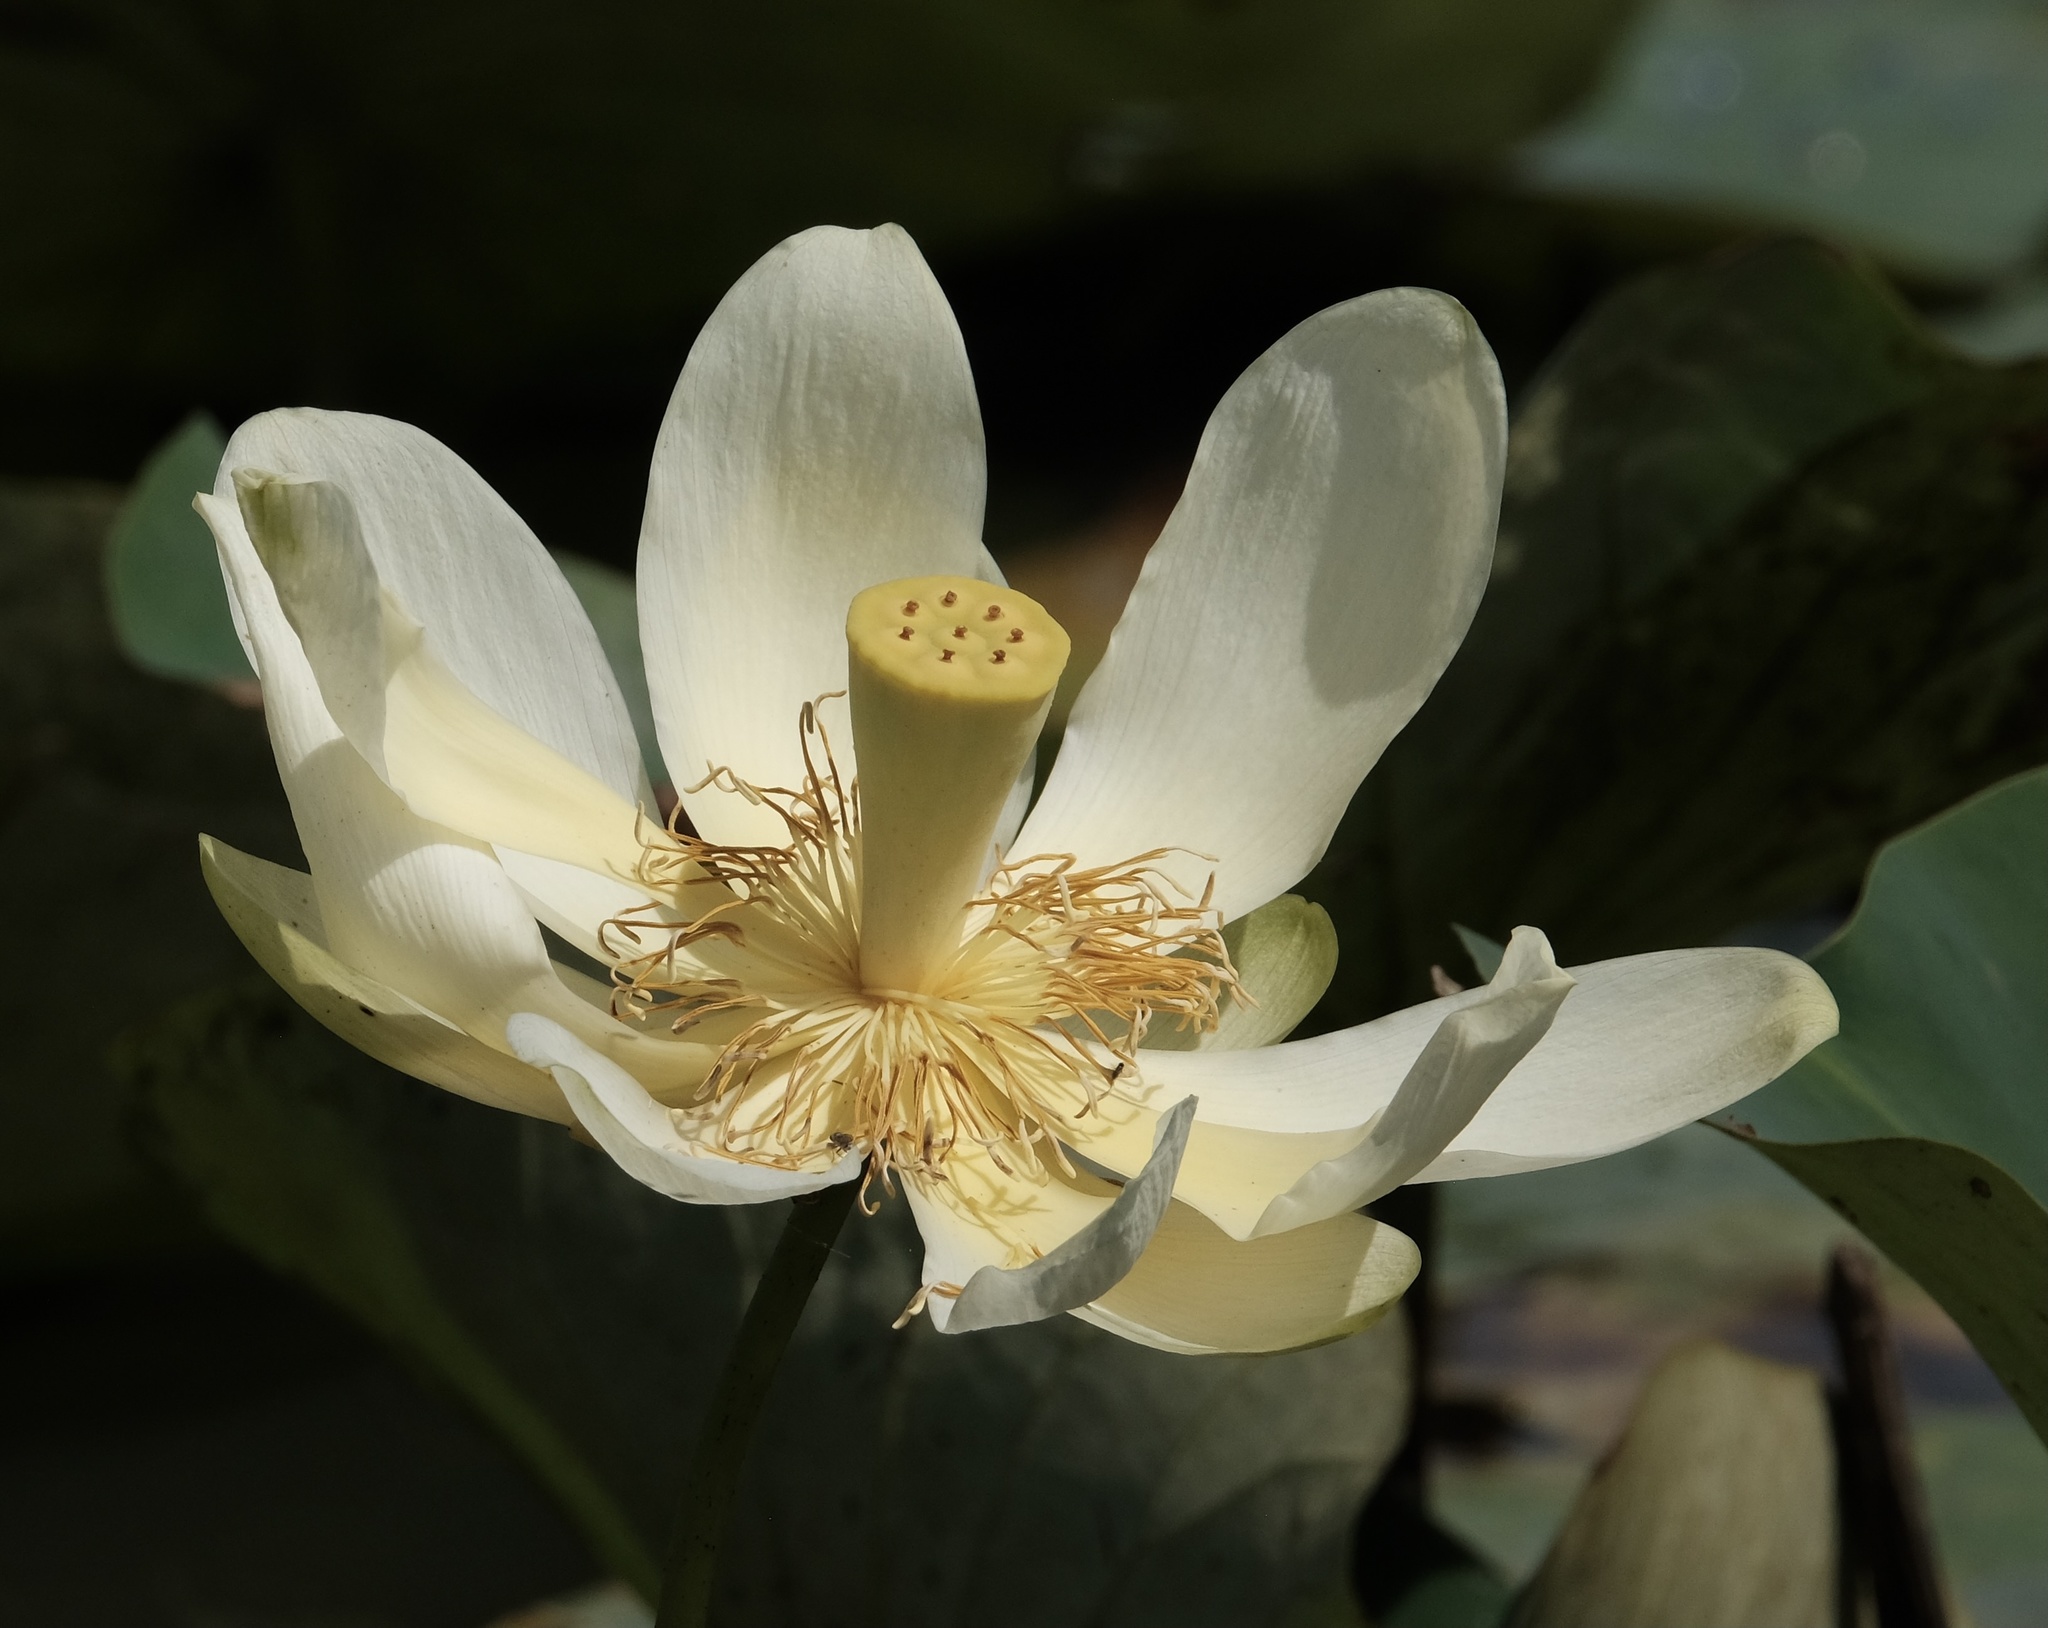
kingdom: Plantae
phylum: Tracheophyta
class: Magnoliopsida
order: Proteales
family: Nelumbonaceae
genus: Nelumbo
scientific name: Nelumbo lutea
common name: American lotus
